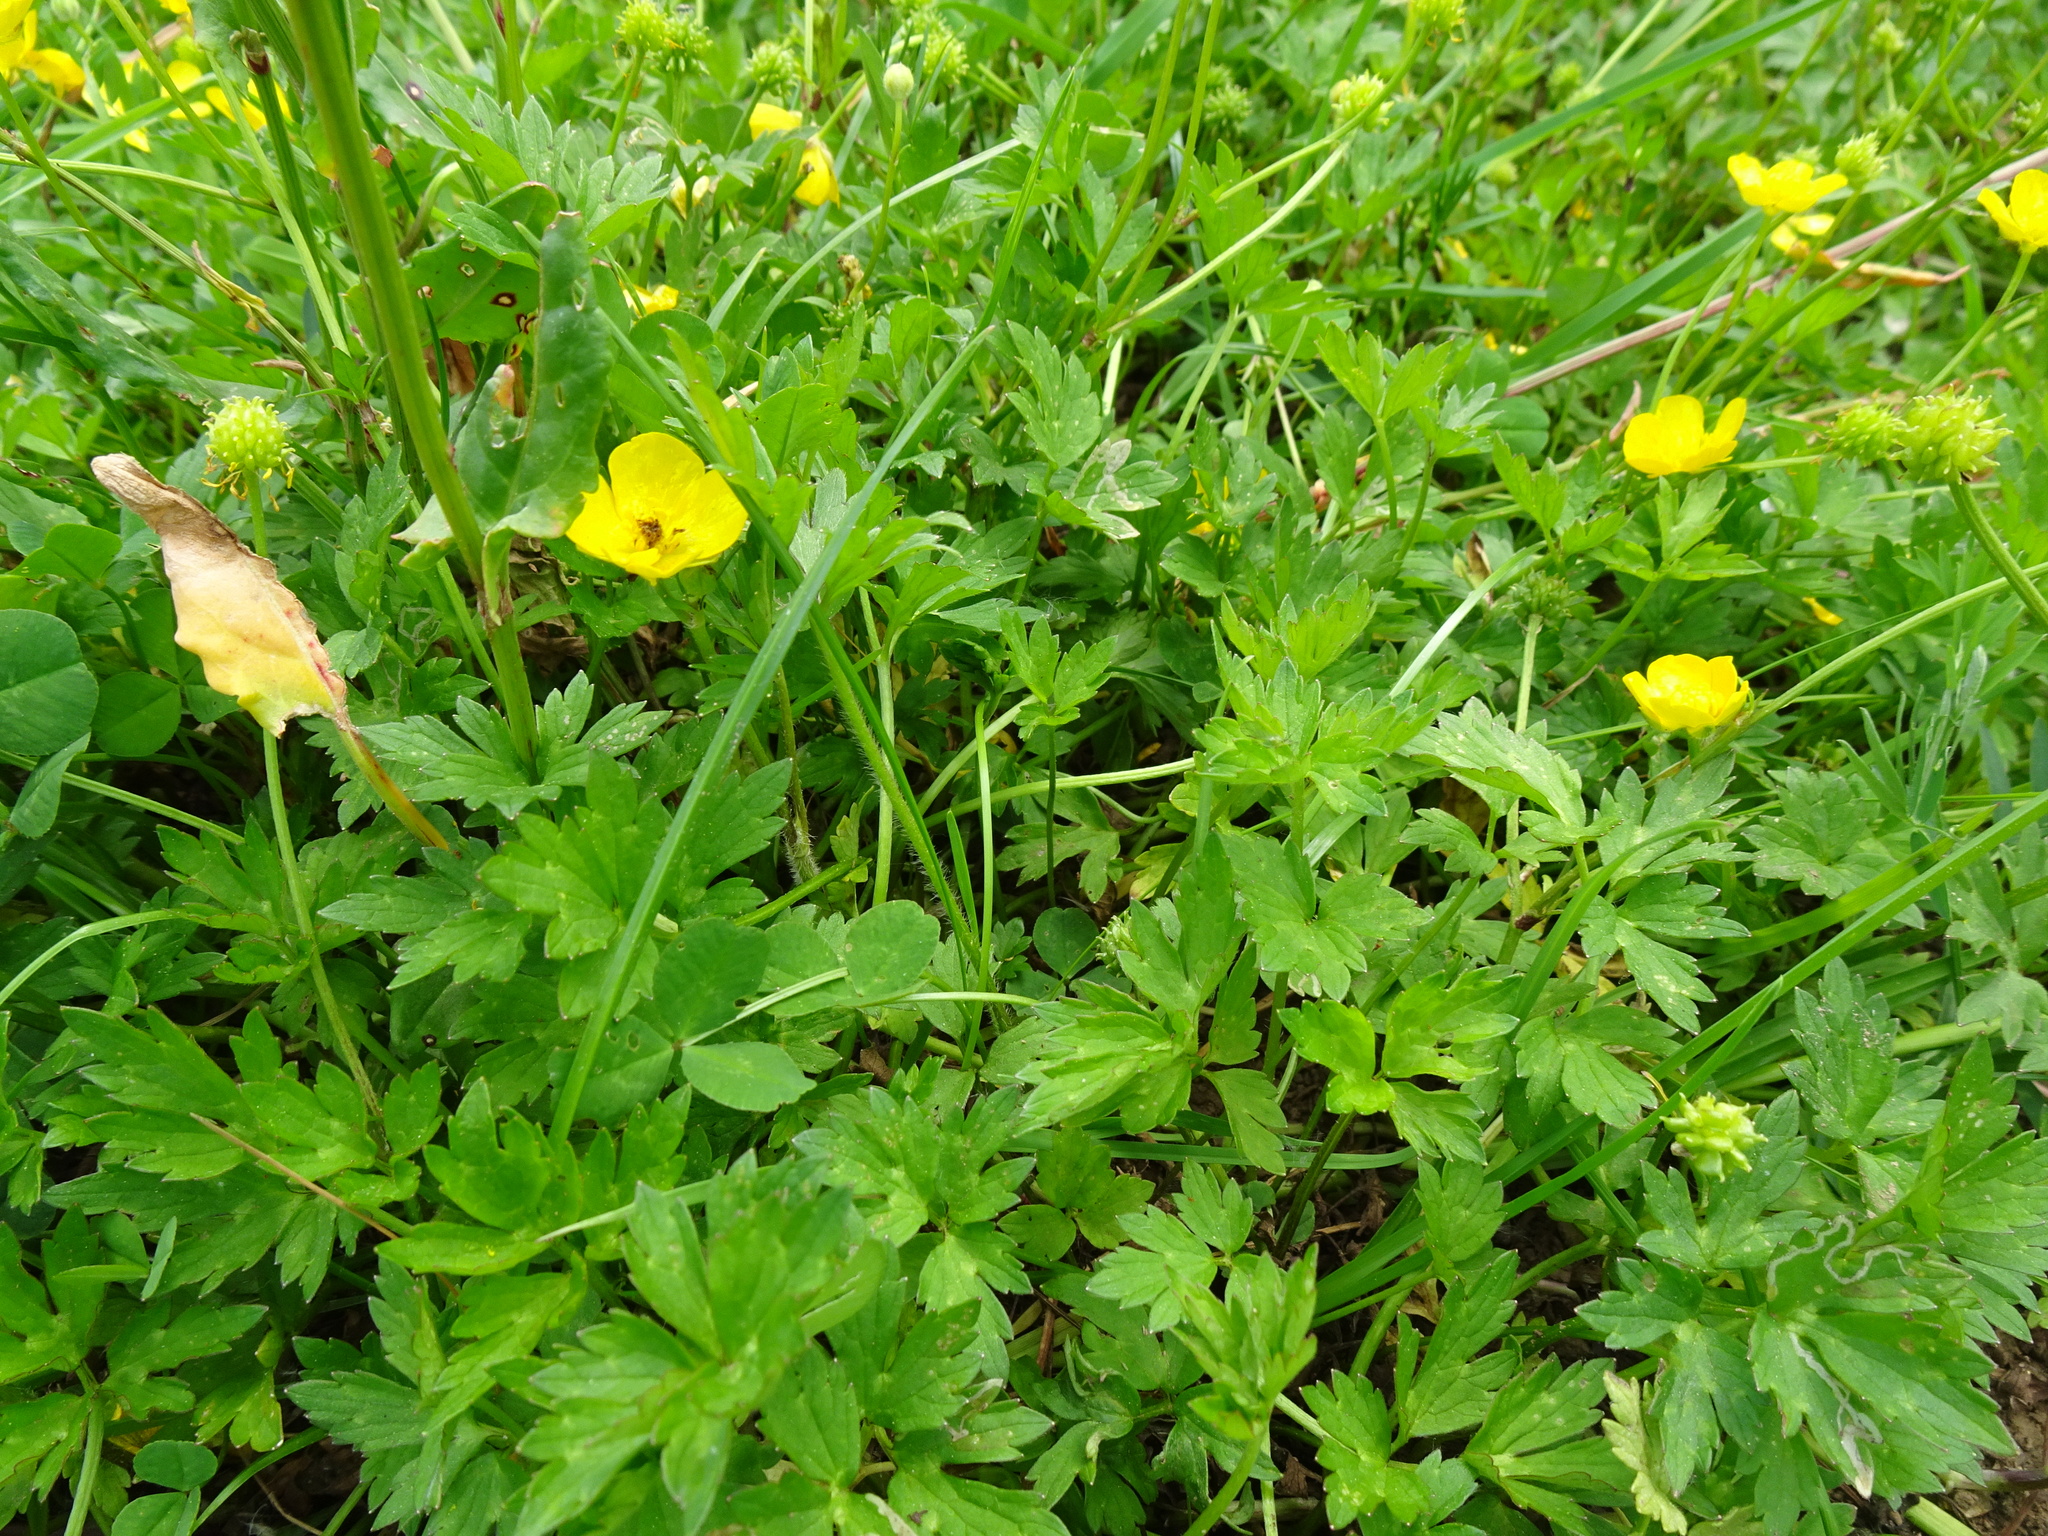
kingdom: Plantae
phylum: Tracheophyta
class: Magnoliopsida
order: Ranunculales
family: Ranunculaceae
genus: Ranunculus
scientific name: Ranunculus repens
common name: Creeping buttercup
